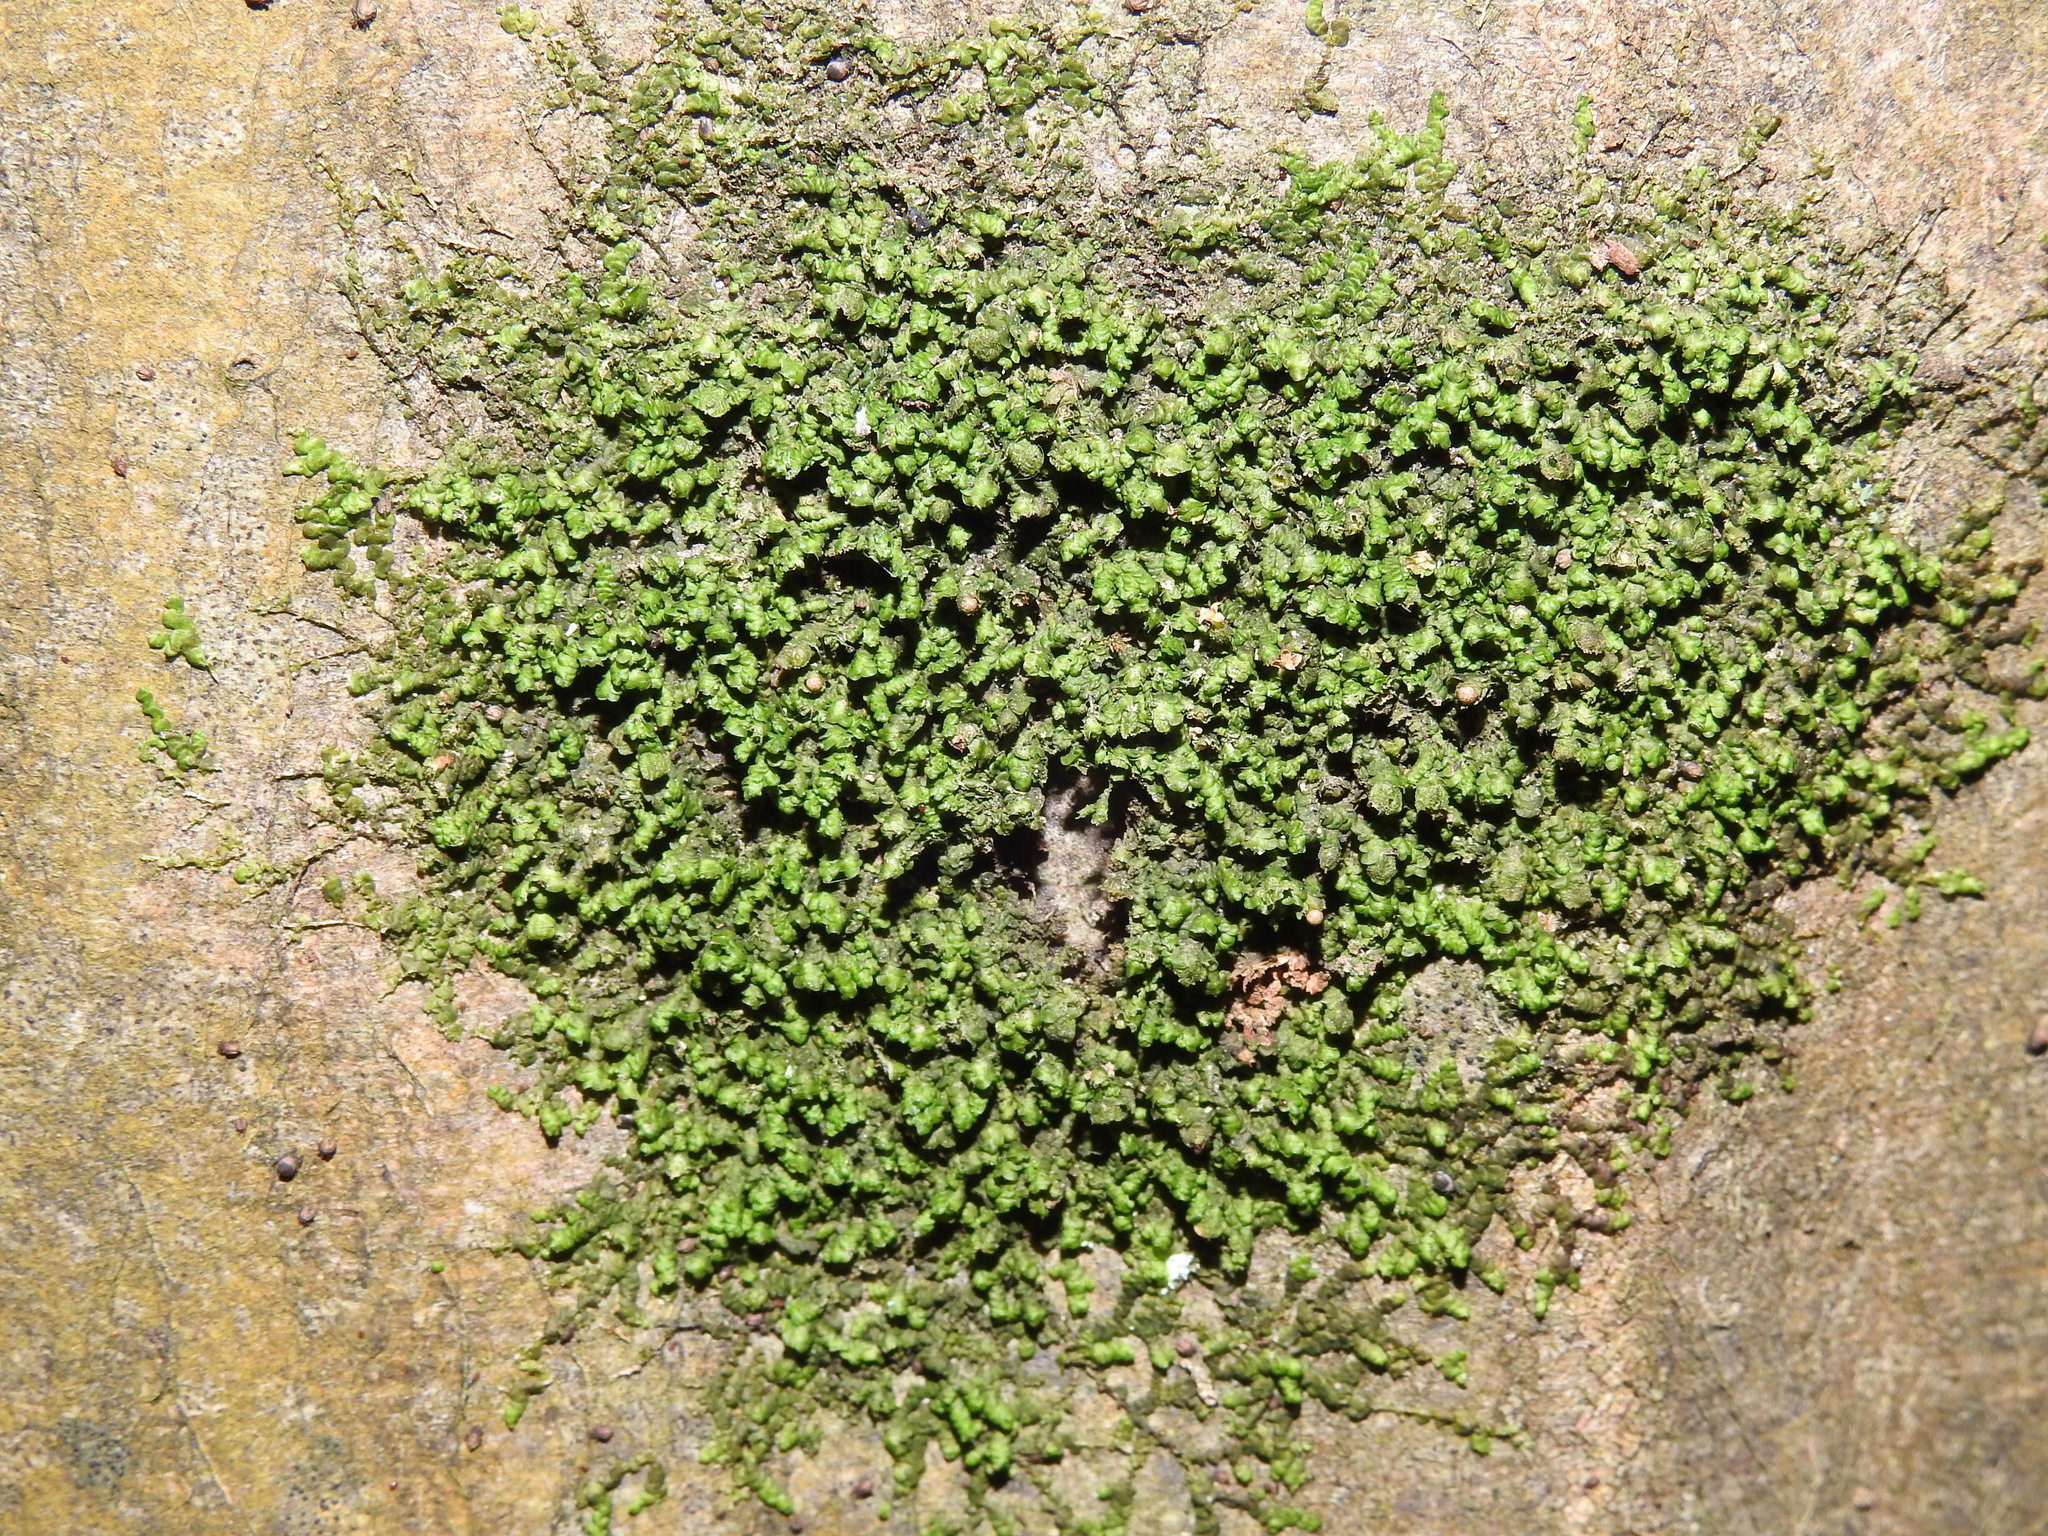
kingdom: Plantae
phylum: Marchantiophyta
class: Jungermanniopsida
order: Porellales
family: Frullaniaceae
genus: Frullania
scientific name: Frullania dilatata
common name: Dilated scalewort
